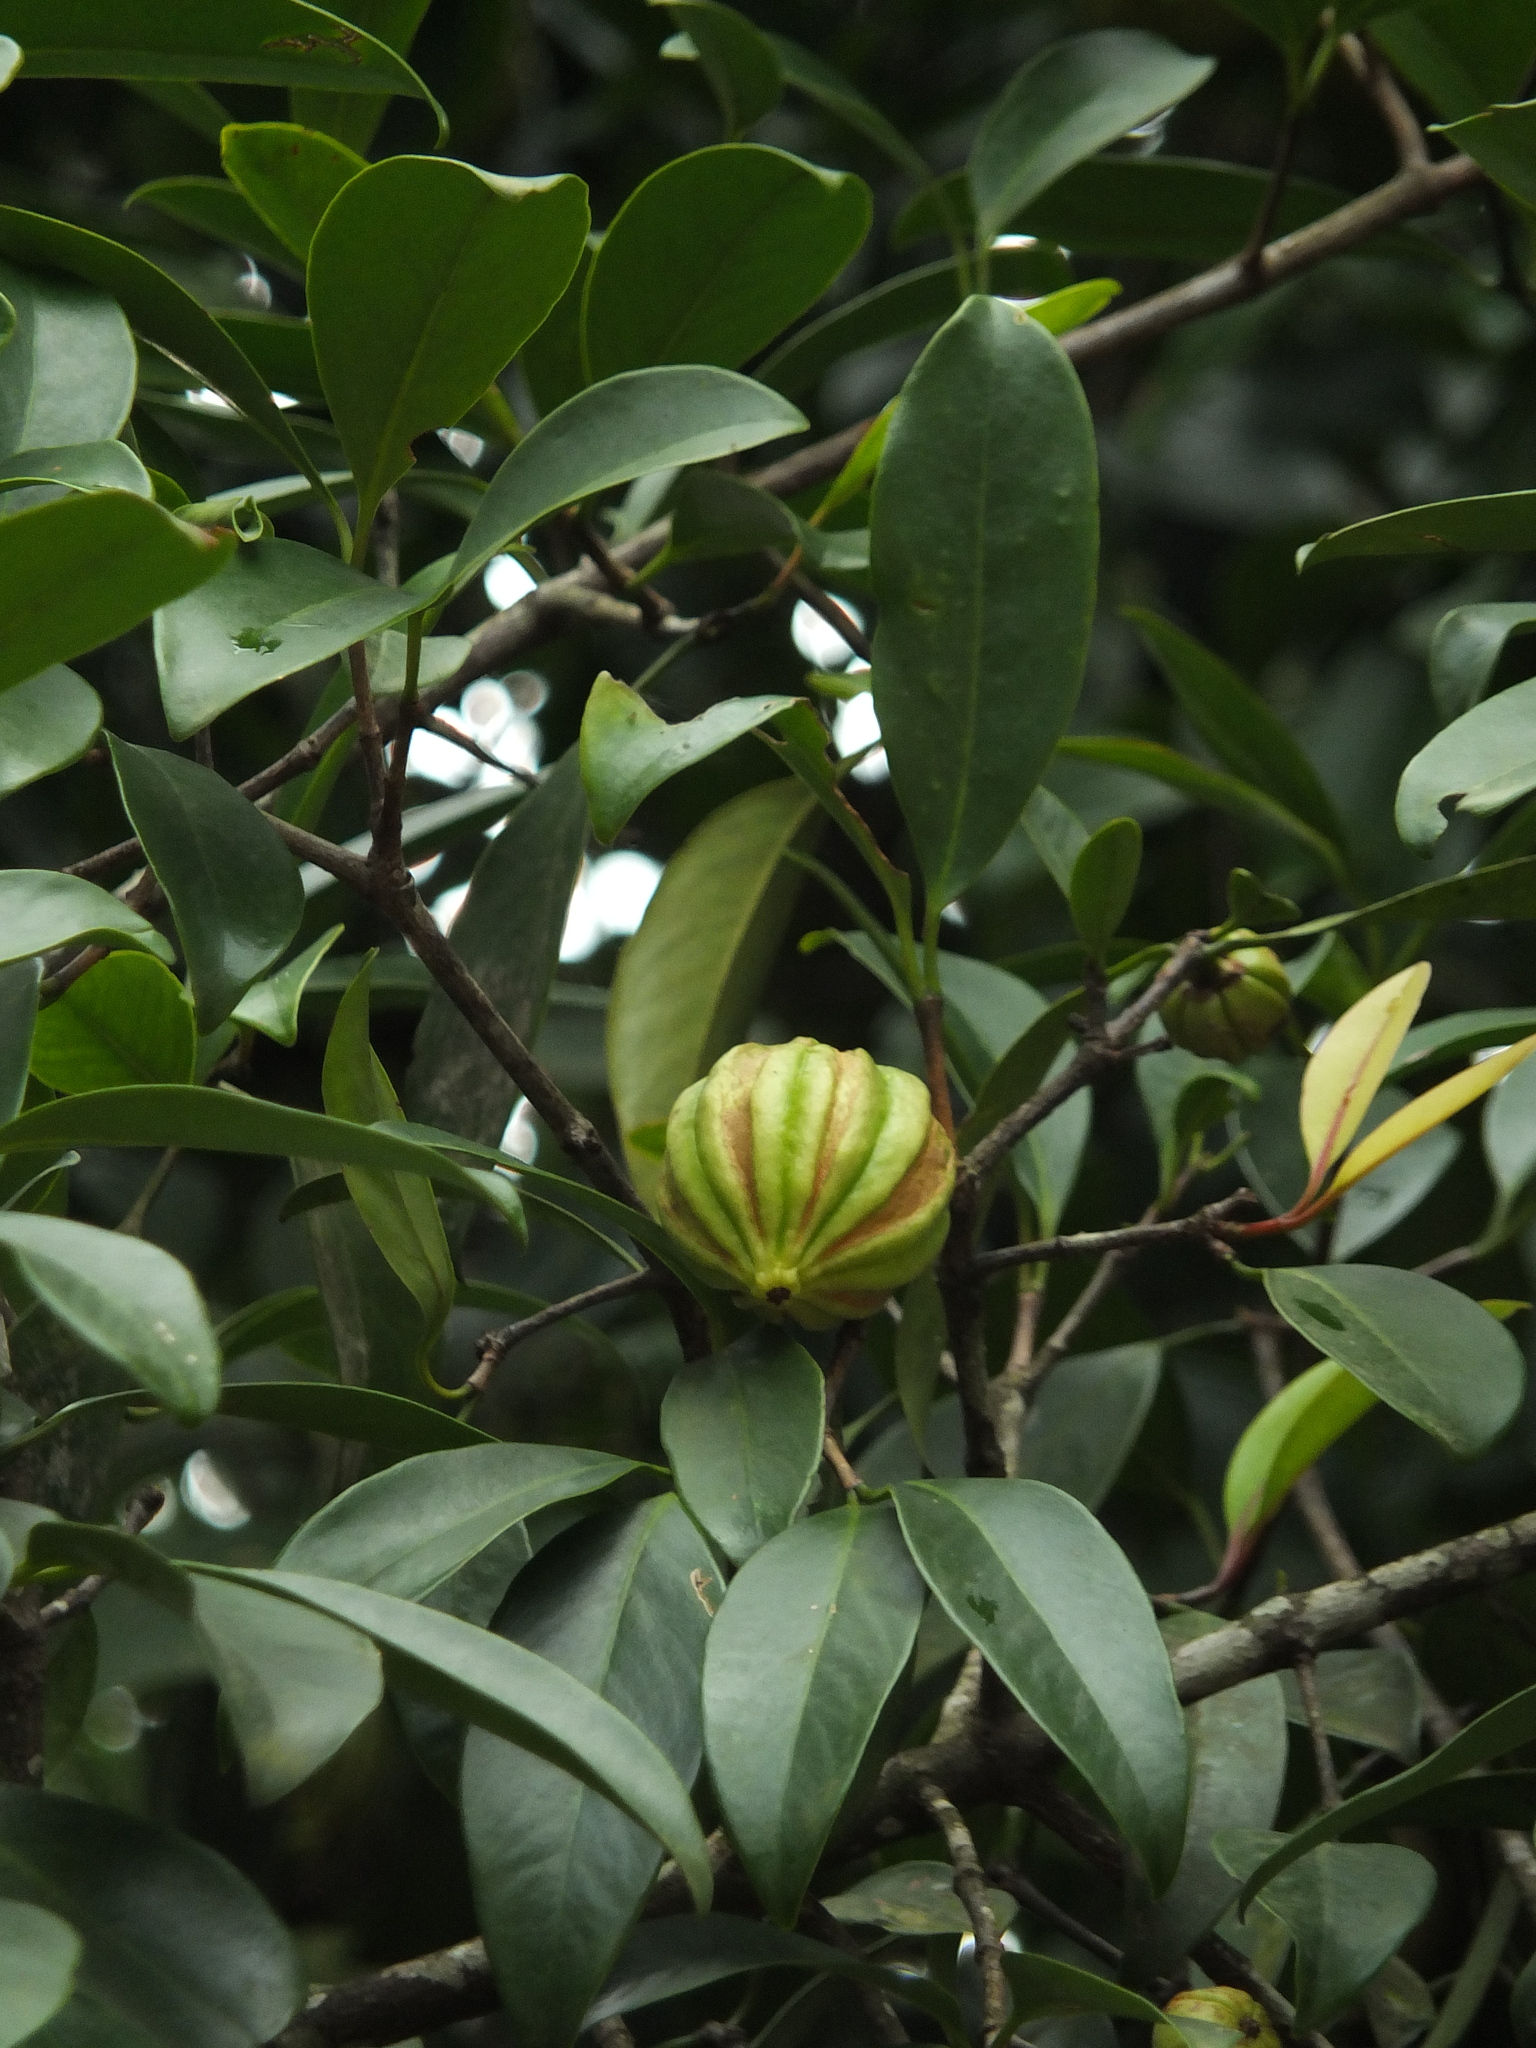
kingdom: Plantae
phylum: Tracheophyta
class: Magnoliopsida
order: Malpighiales
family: Clusiaceae
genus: Garcinia
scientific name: Garcinia gummi-gutta
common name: Malabar tamarind
